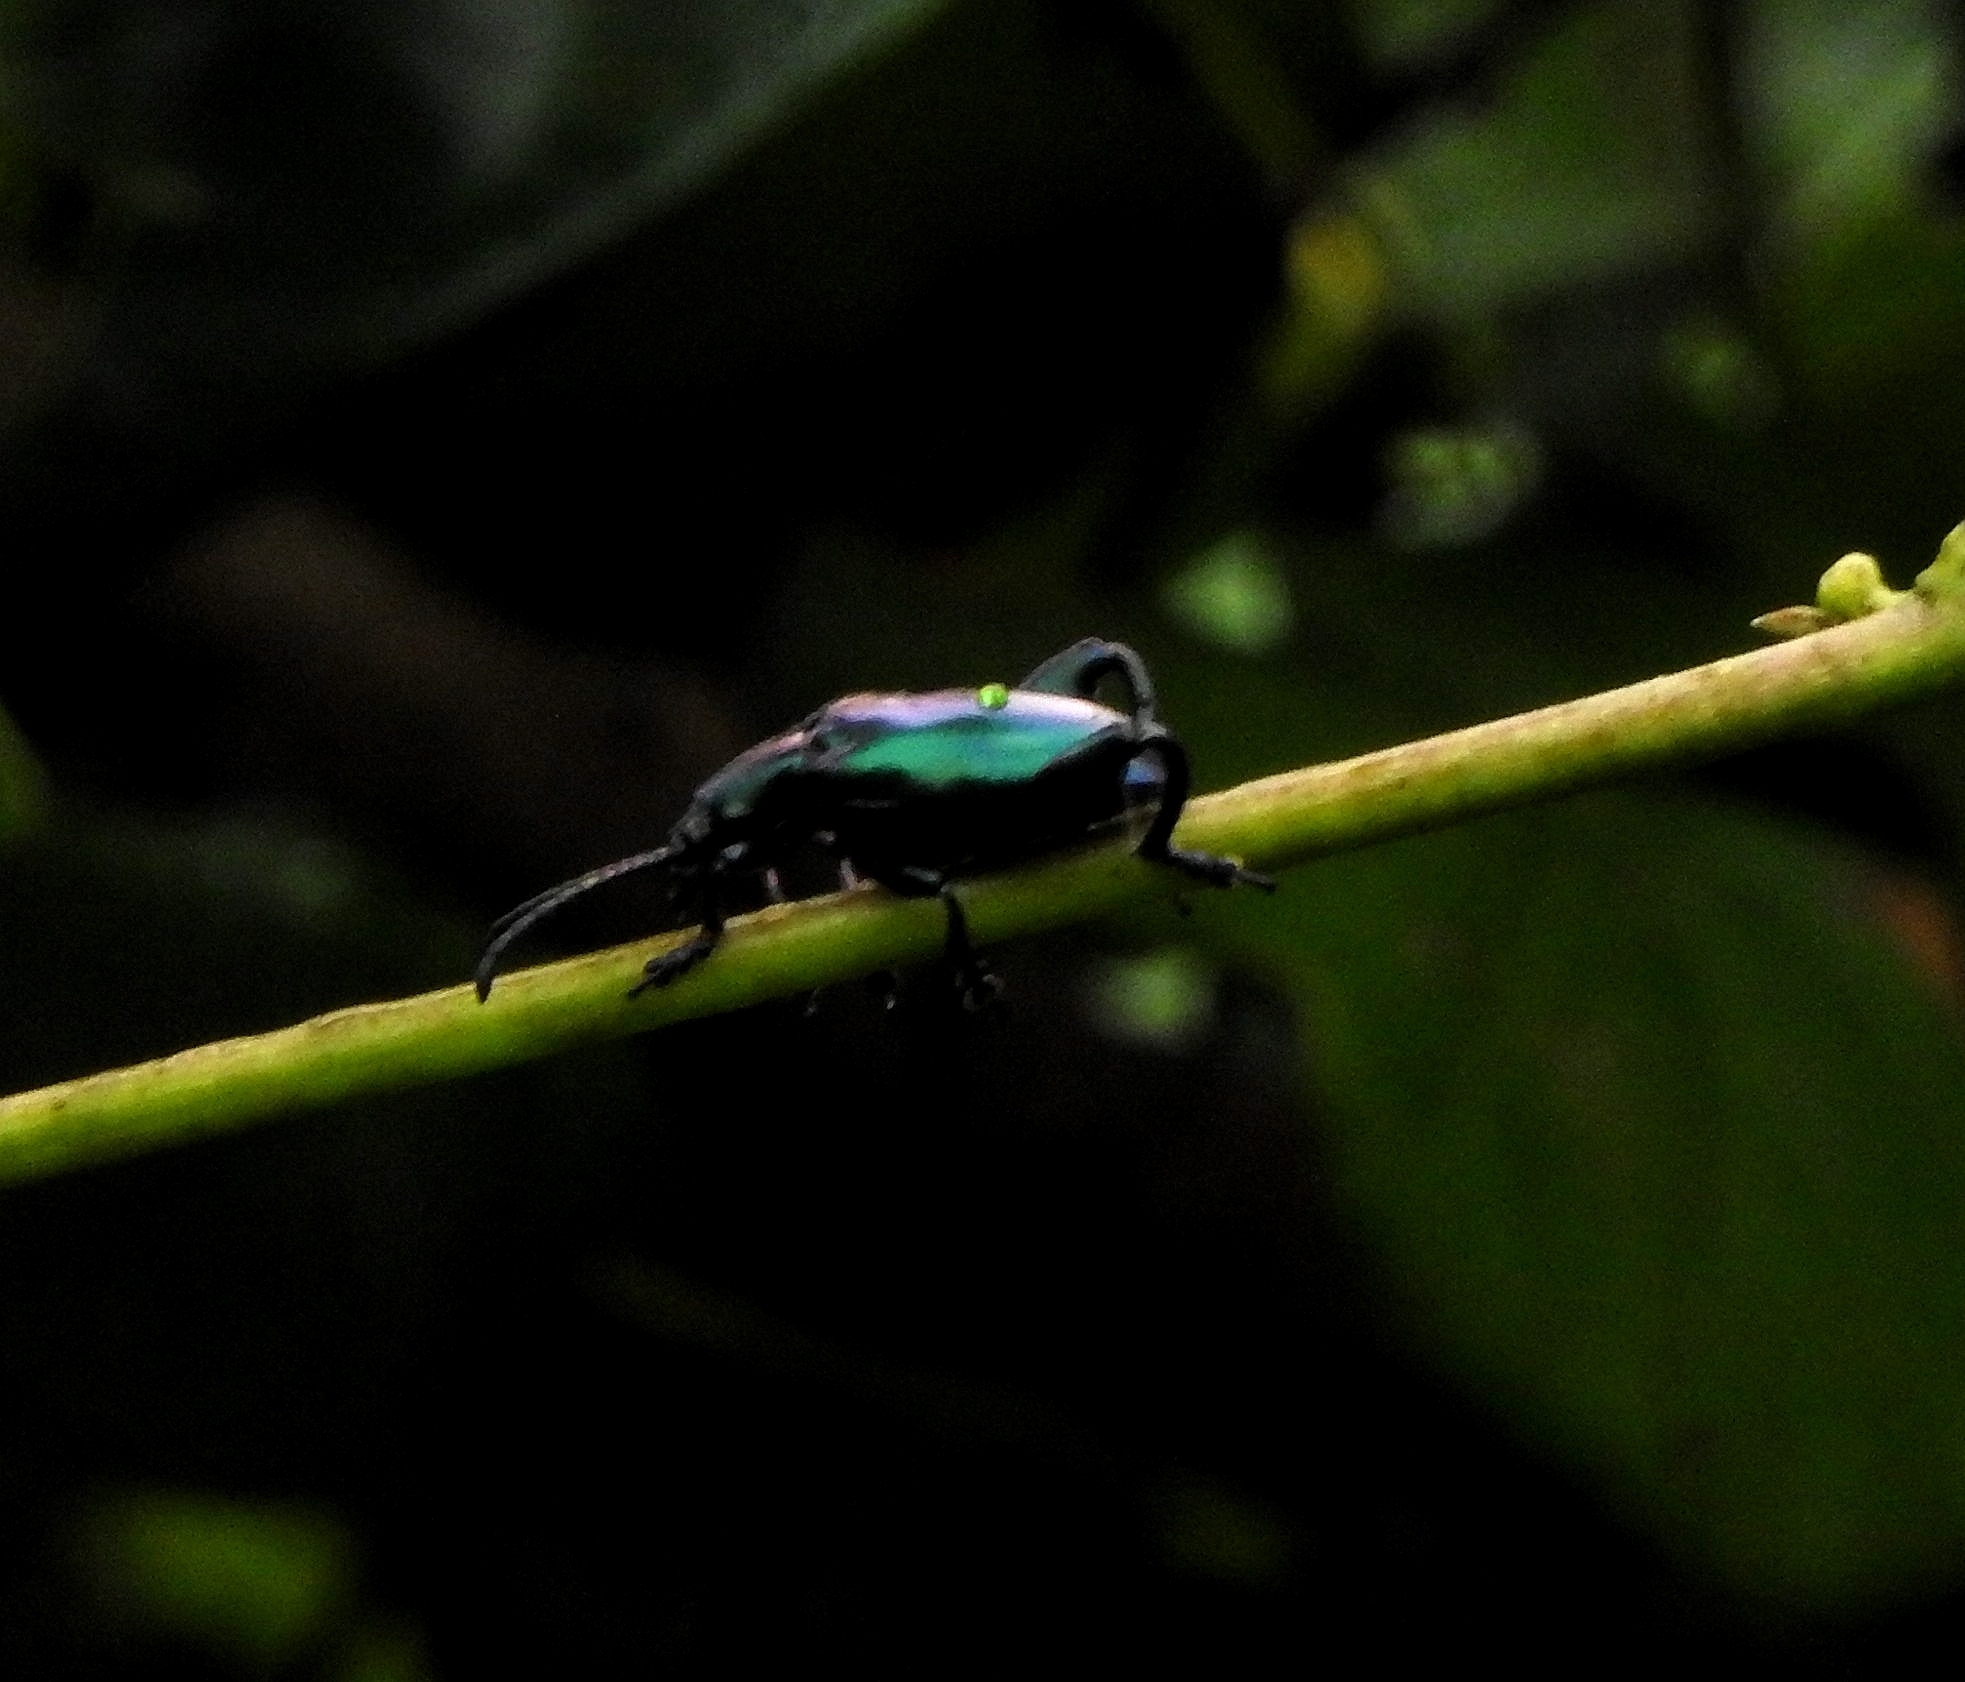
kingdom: Animalia
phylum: Arthropoda
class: Insecta
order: Coleoptera
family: Chrysomelidae
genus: Sagra
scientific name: Sagra femorata
